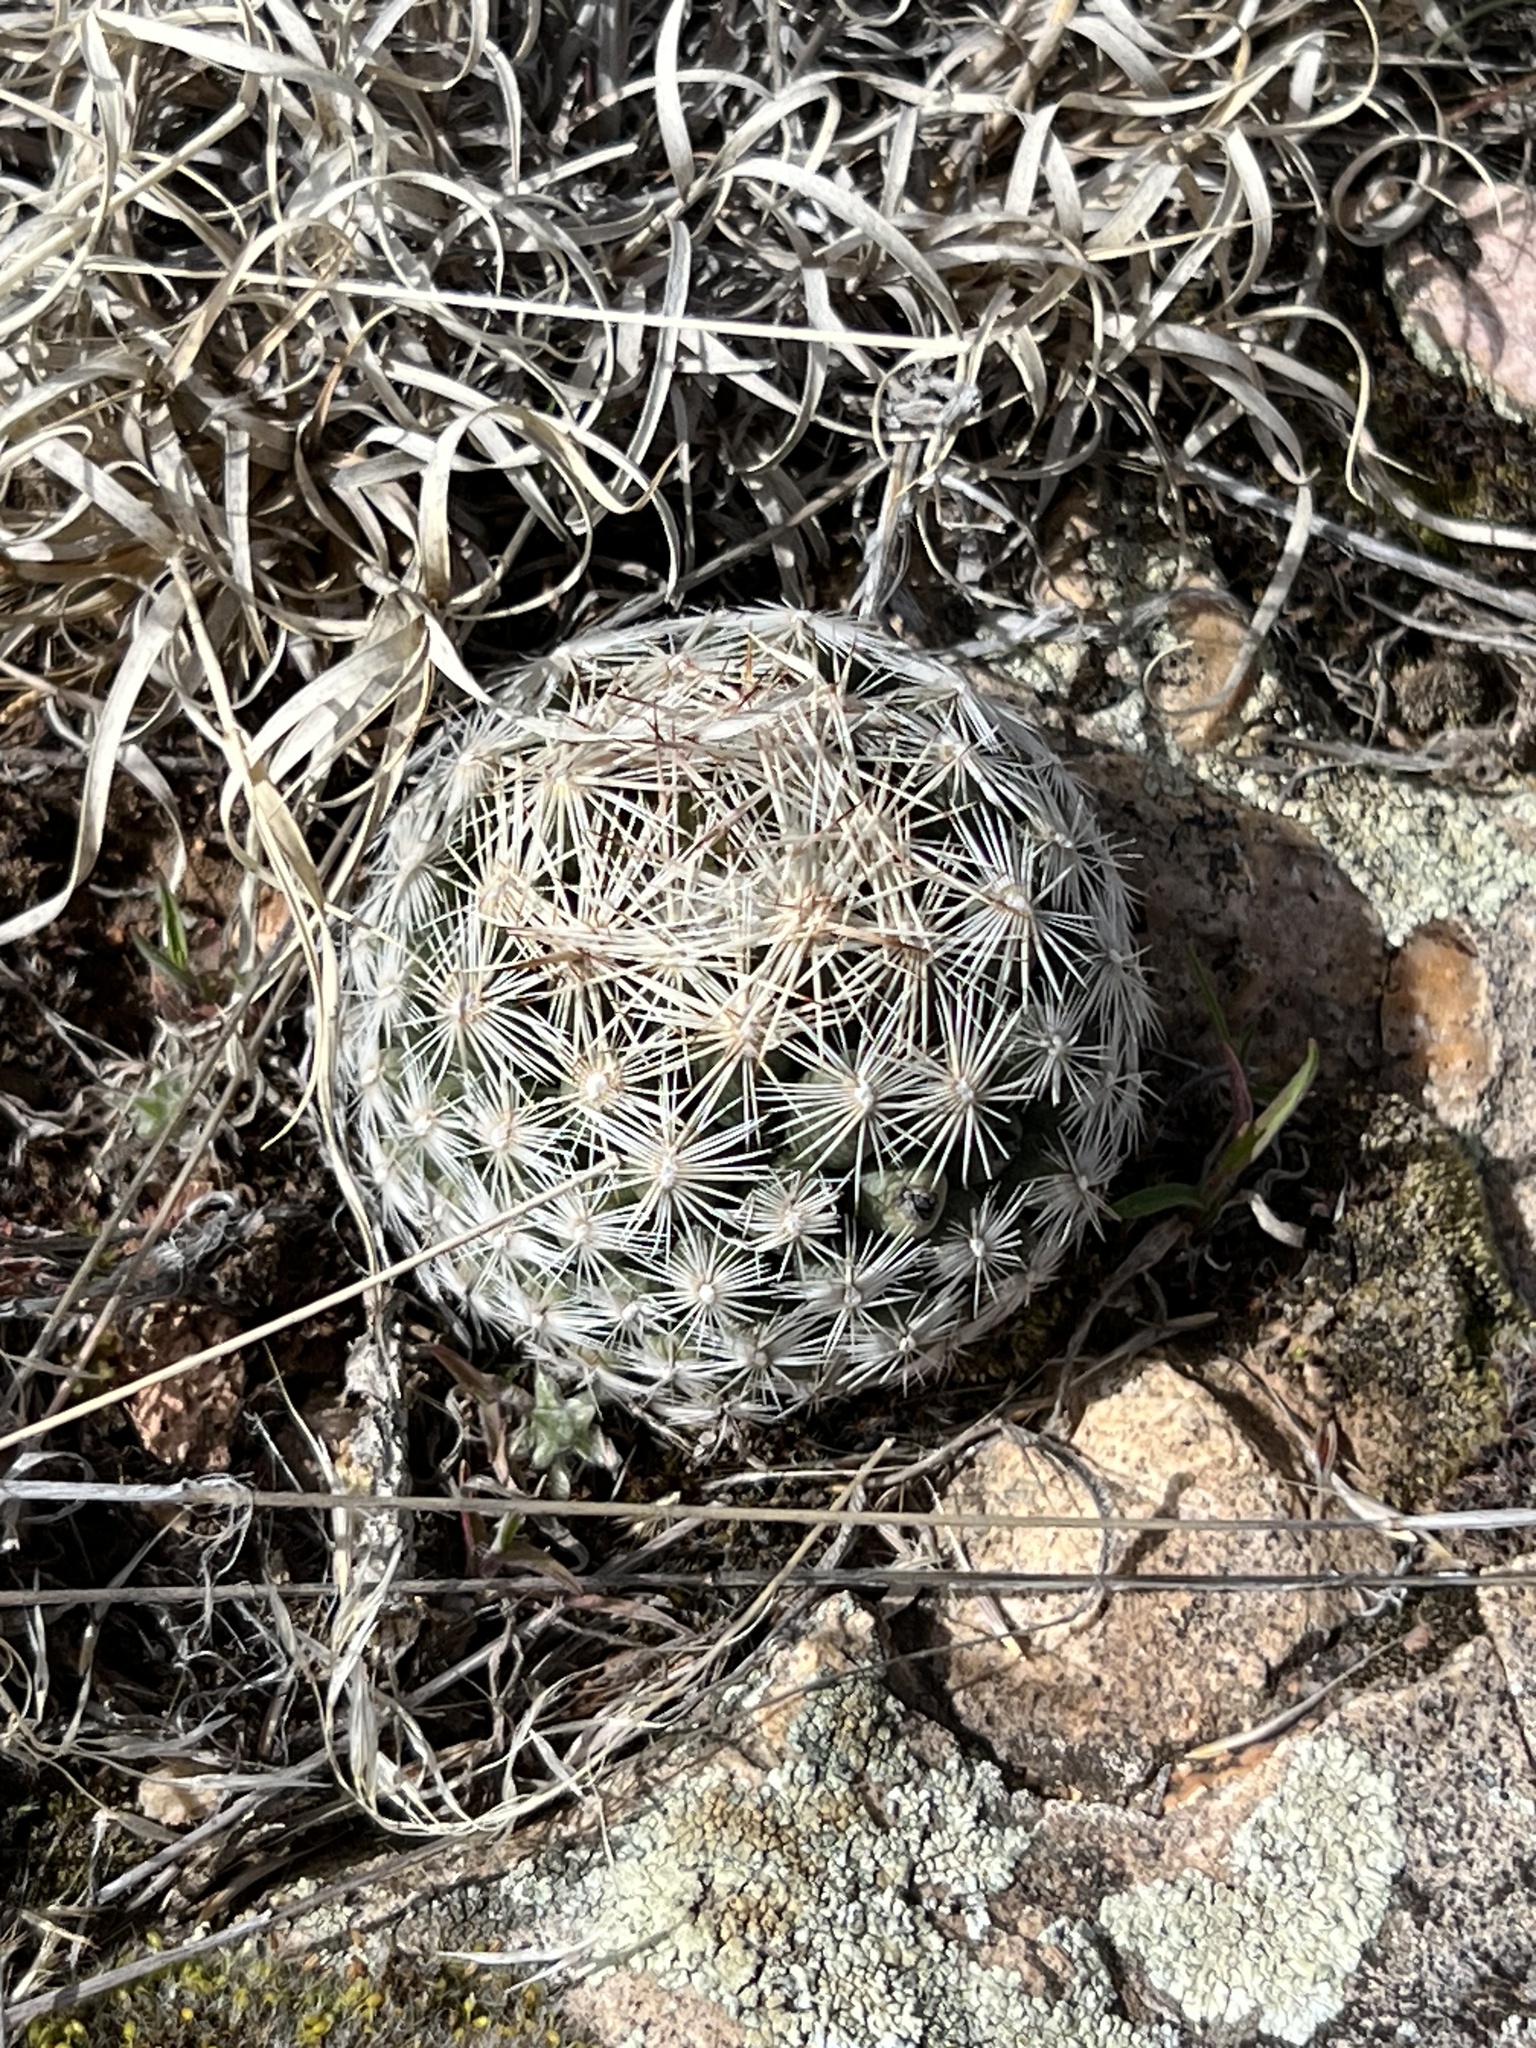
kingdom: Plantae
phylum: Tracheophyta
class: Magnoliopsida
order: Caryophyllales
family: Cactaceae
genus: Pelecyphora
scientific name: Pelecyphora vivipara
